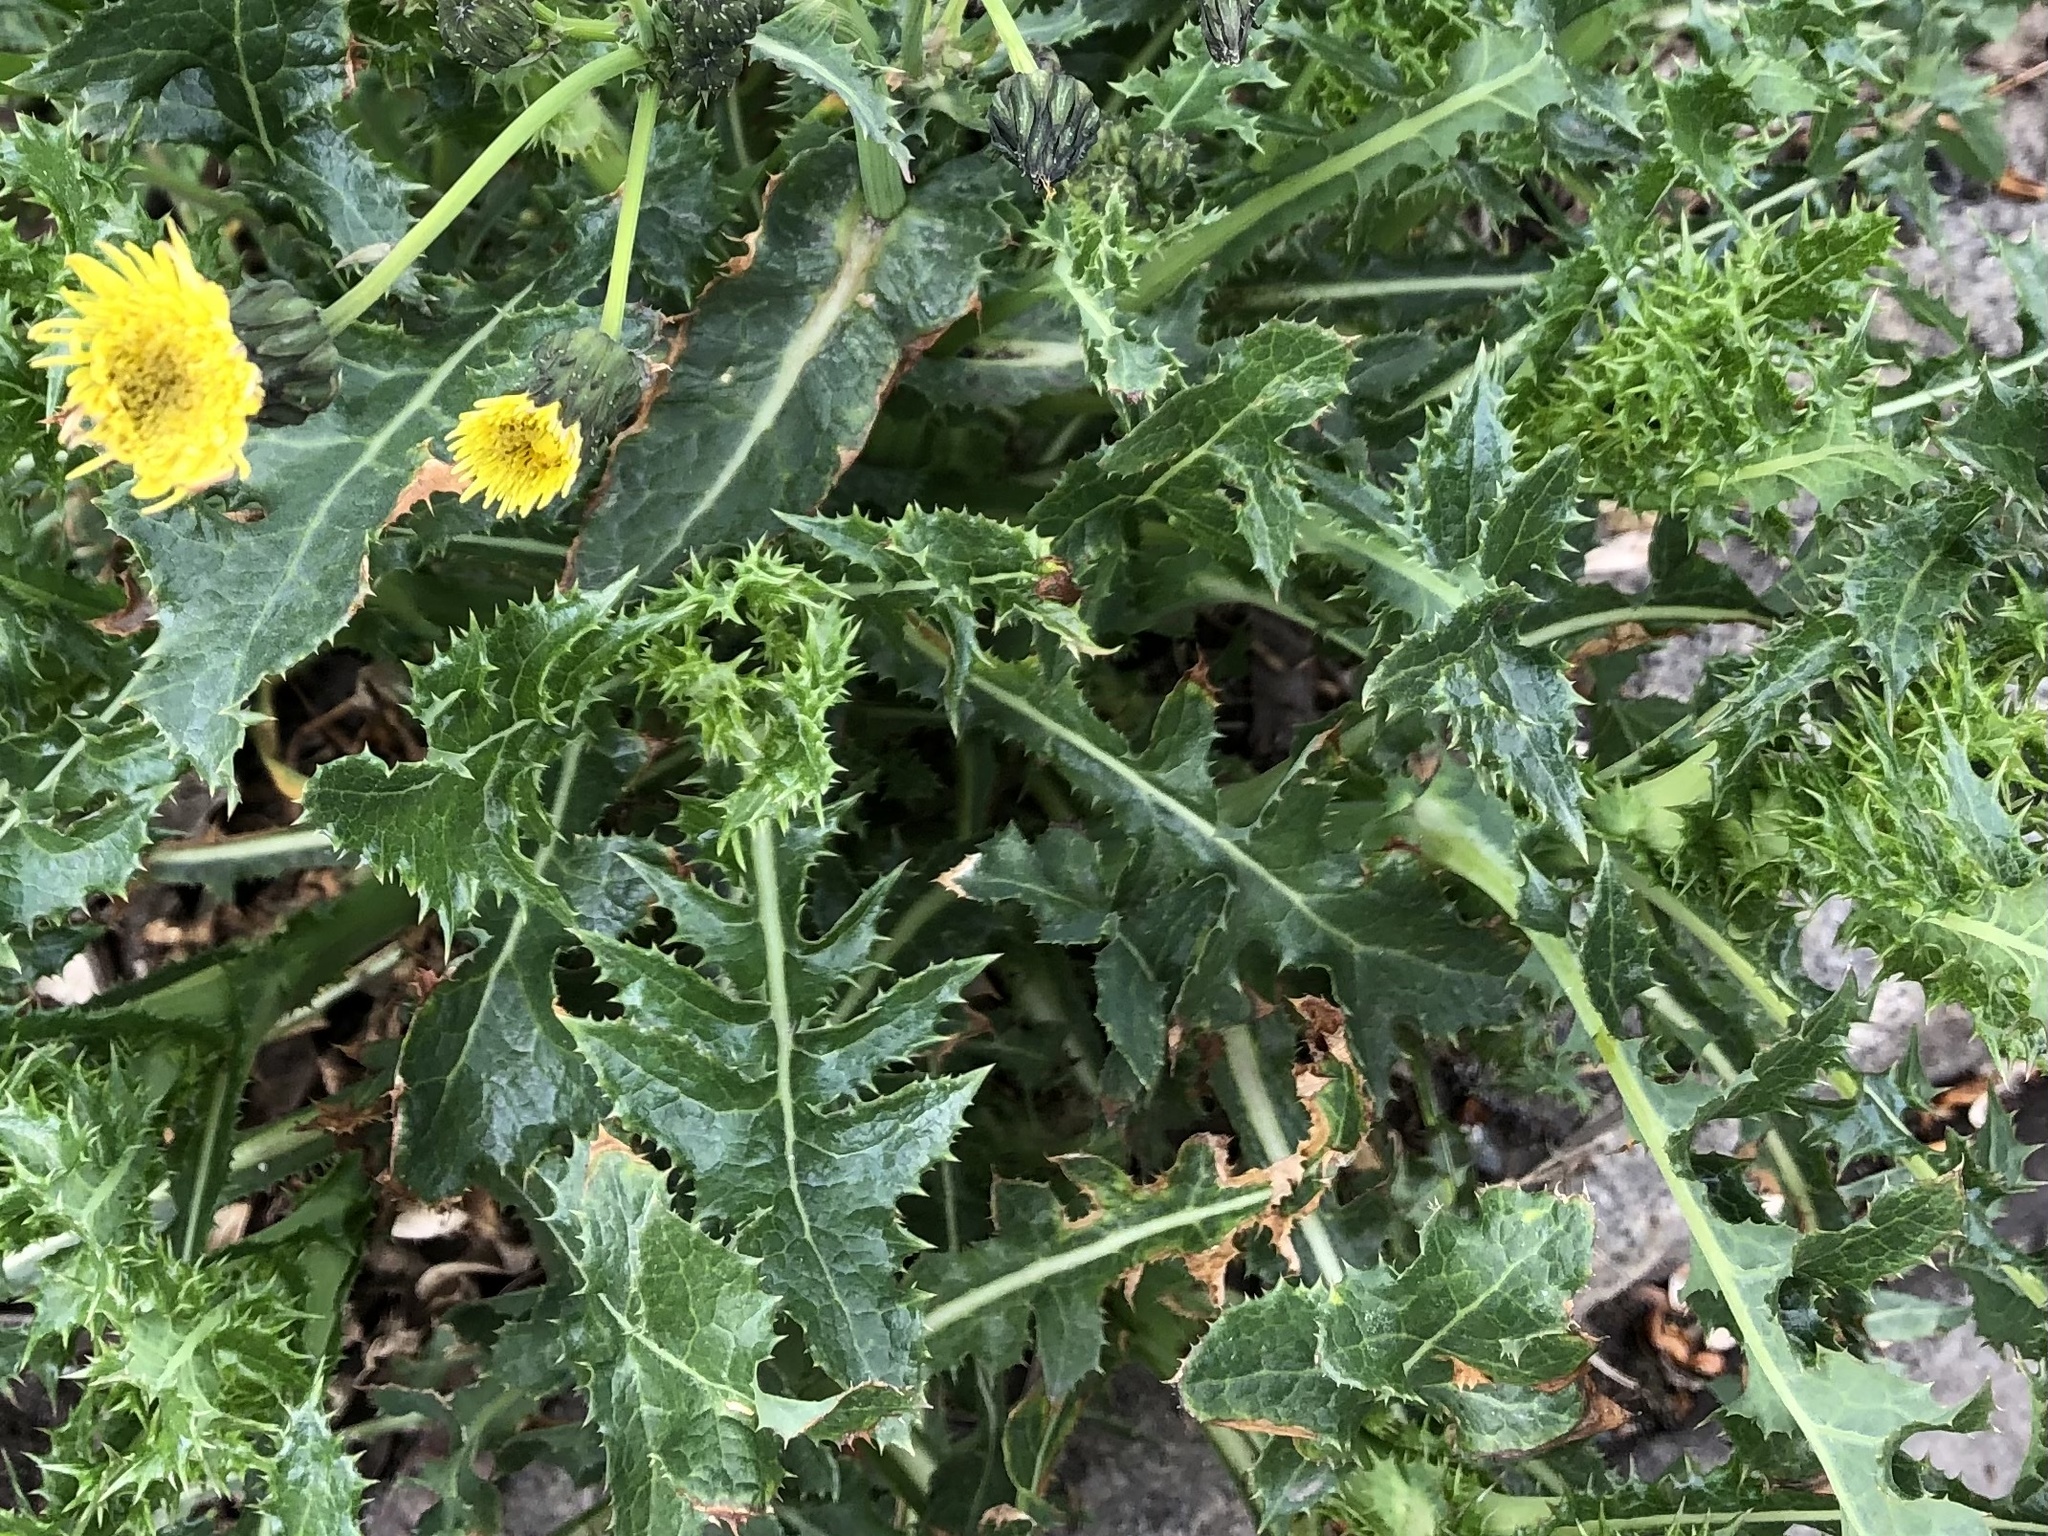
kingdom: Plantae
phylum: Tracheophyta
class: Magnoliopsida
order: Asterales
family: Asteraceae
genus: Sonchus
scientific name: Sonchus asper
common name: Prickly sow-thistle
